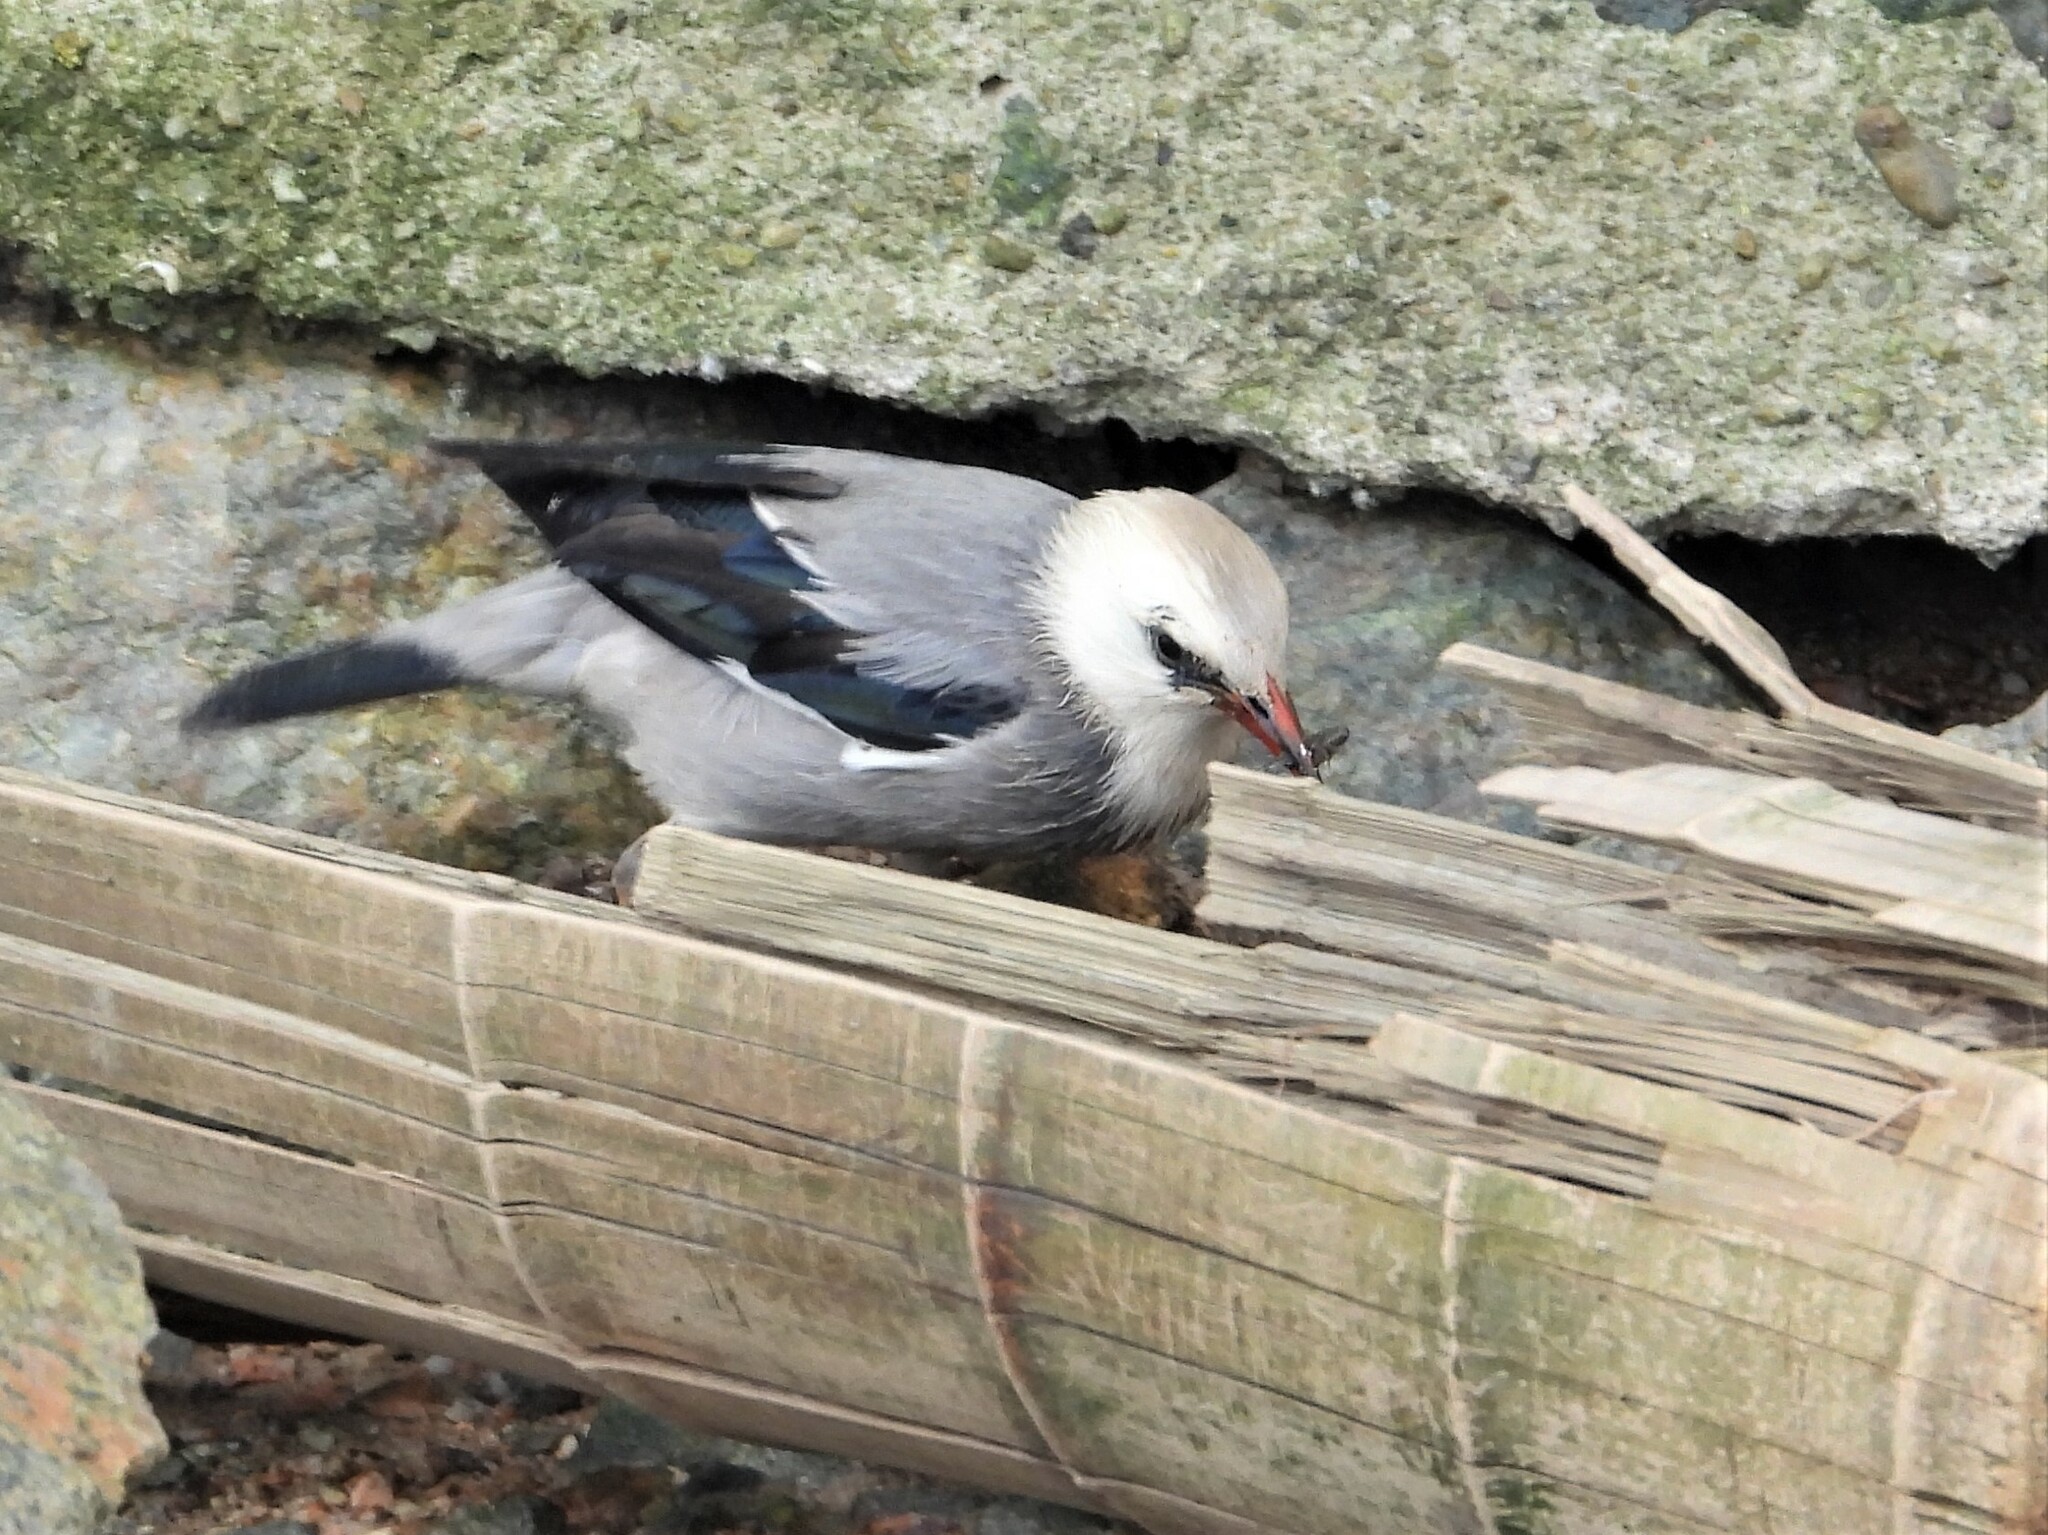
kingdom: Animalia
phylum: Chordata
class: Aves
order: Passeriformes
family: Sturnidae
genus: Spodiopsar
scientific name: Spodiopsar sericeus
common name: Red-billed starling
